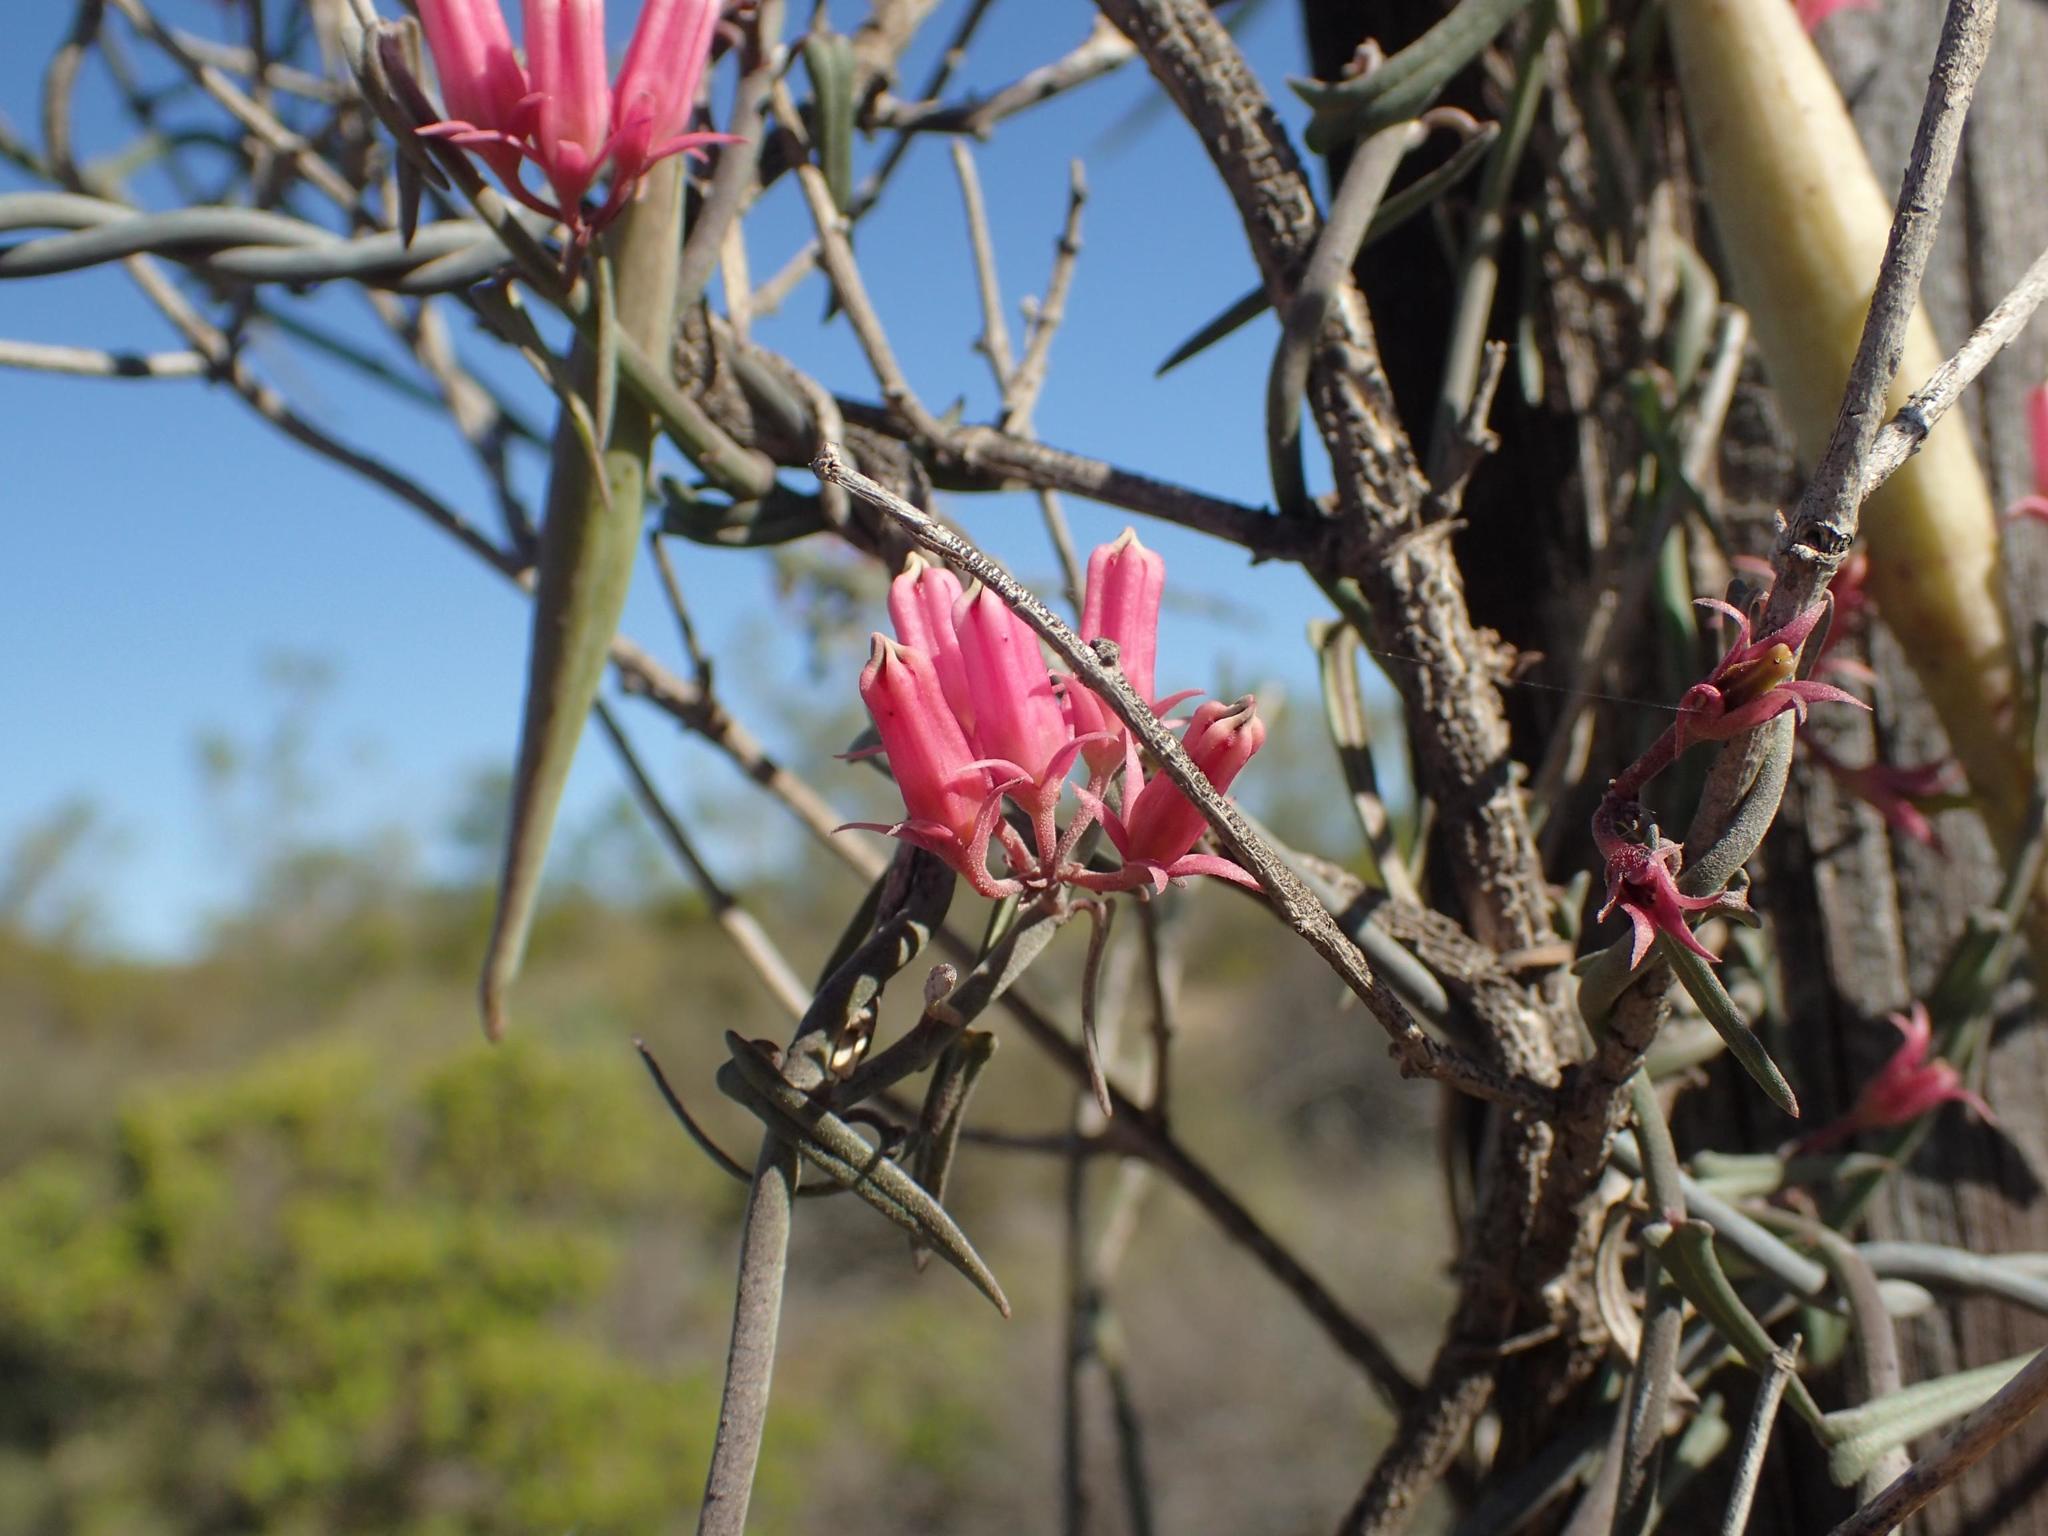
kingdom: Plantae
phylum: Tracheophyta
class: Magnoliopsida
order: Gentianales
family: Apocynaceae
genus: Microloma
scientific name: Microloma sagittatum
